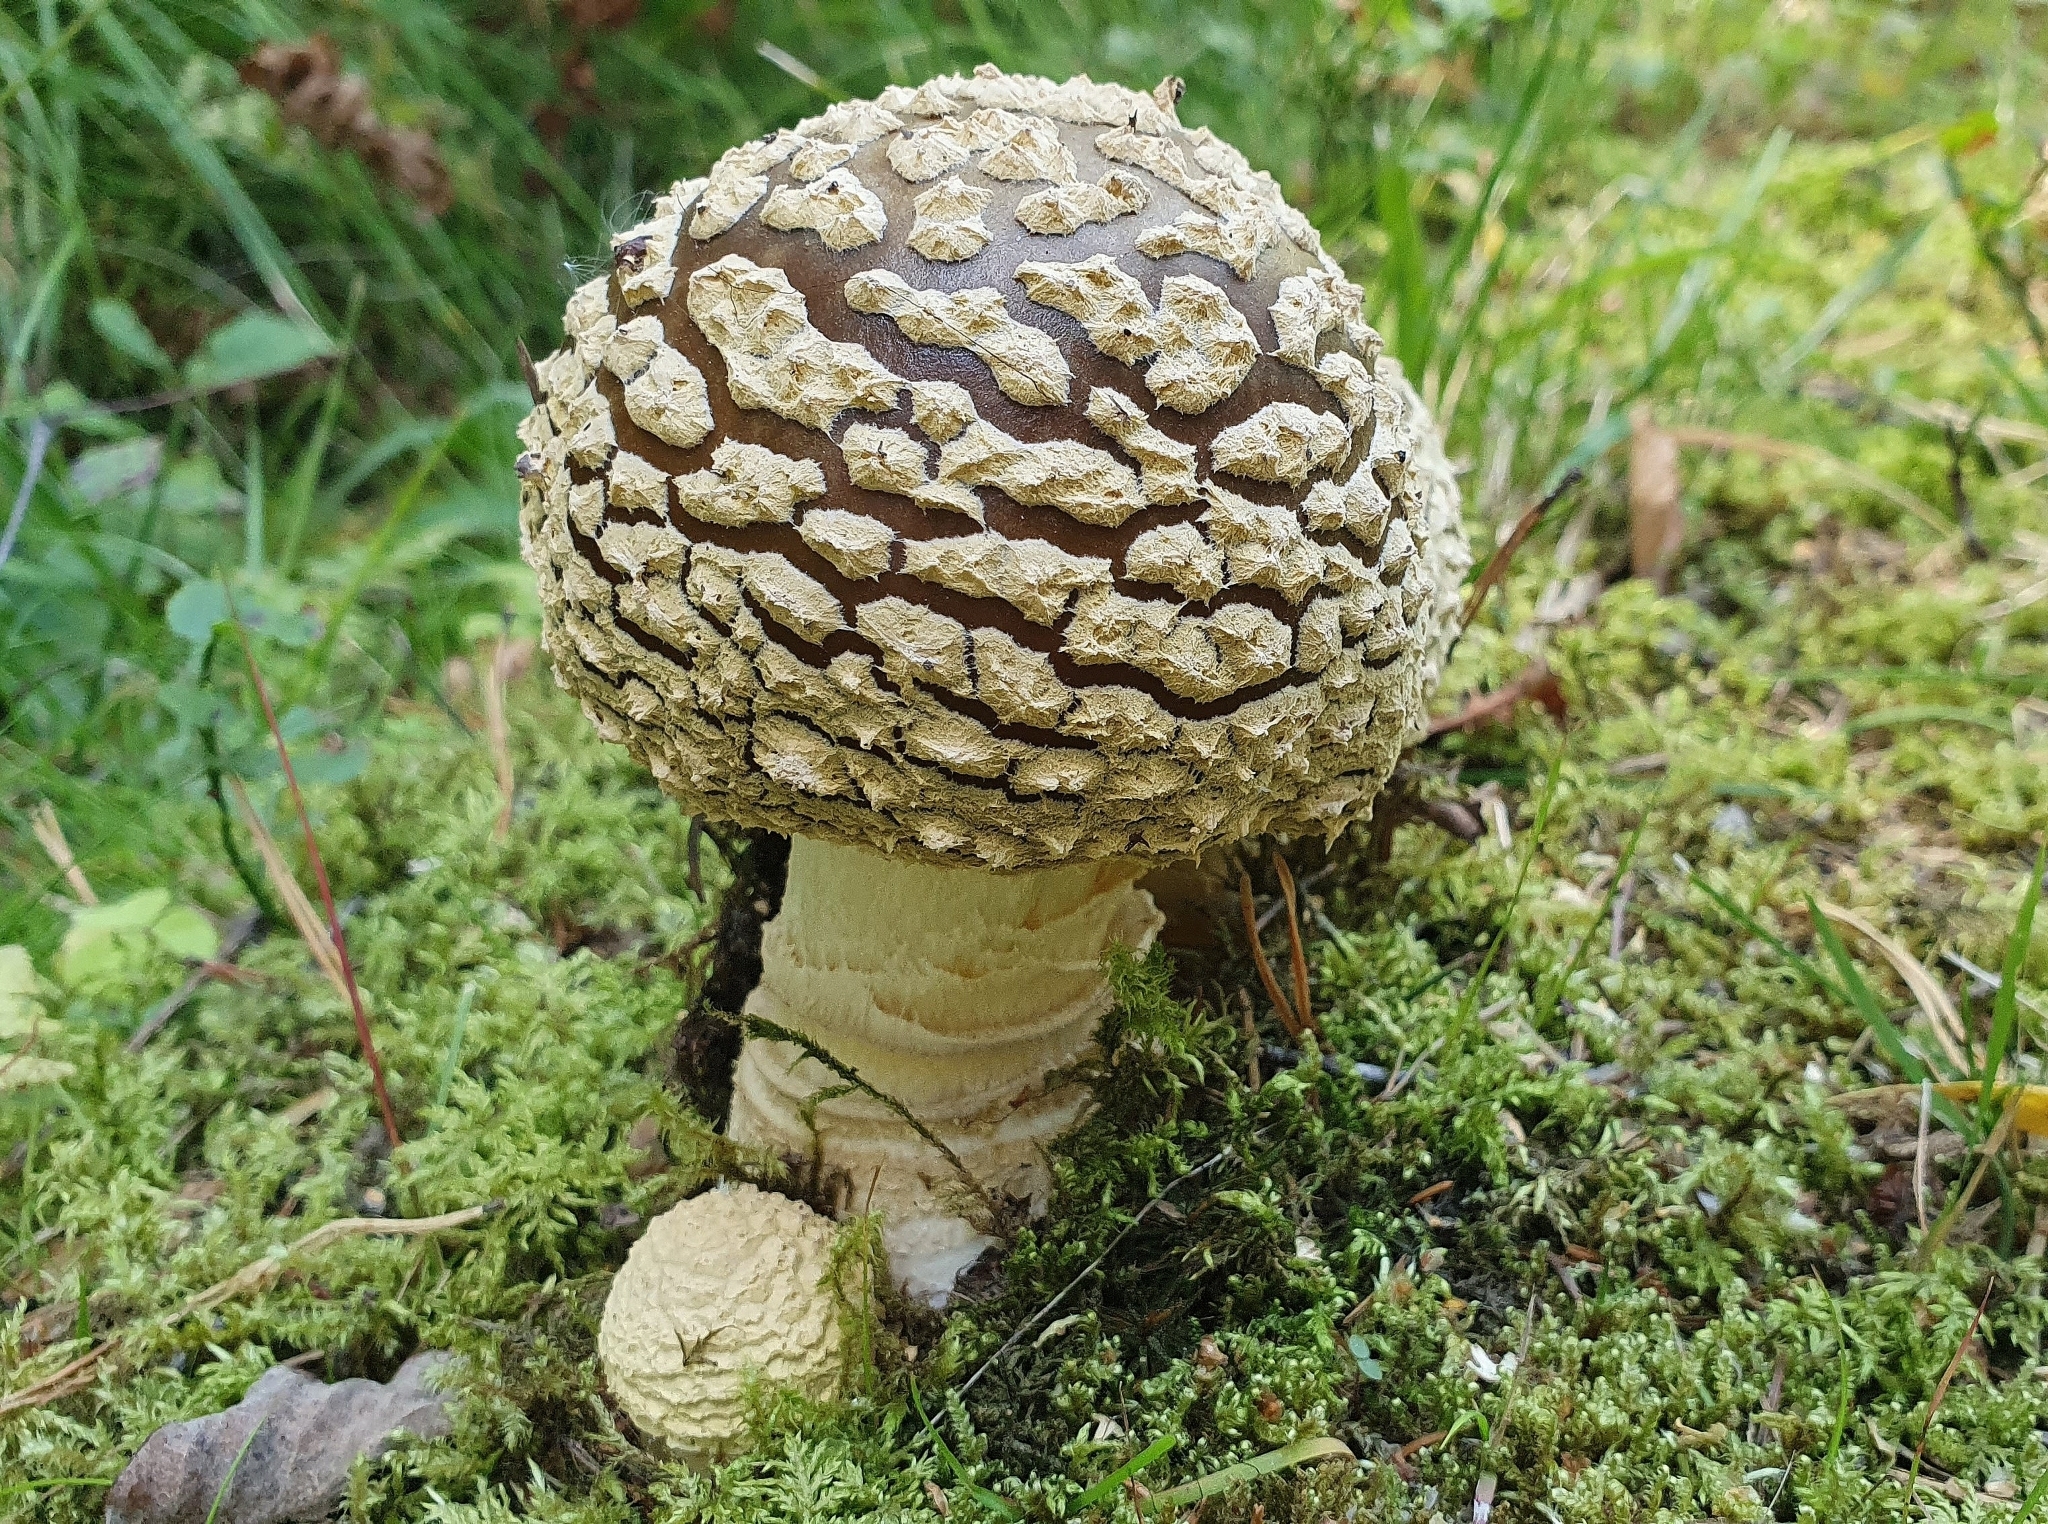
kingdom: Fungi
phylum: Basidiomycota
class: Agaricomycetes
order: Agaricales
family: Amanitaceae
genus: Amanita
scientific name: Amanita regalis
